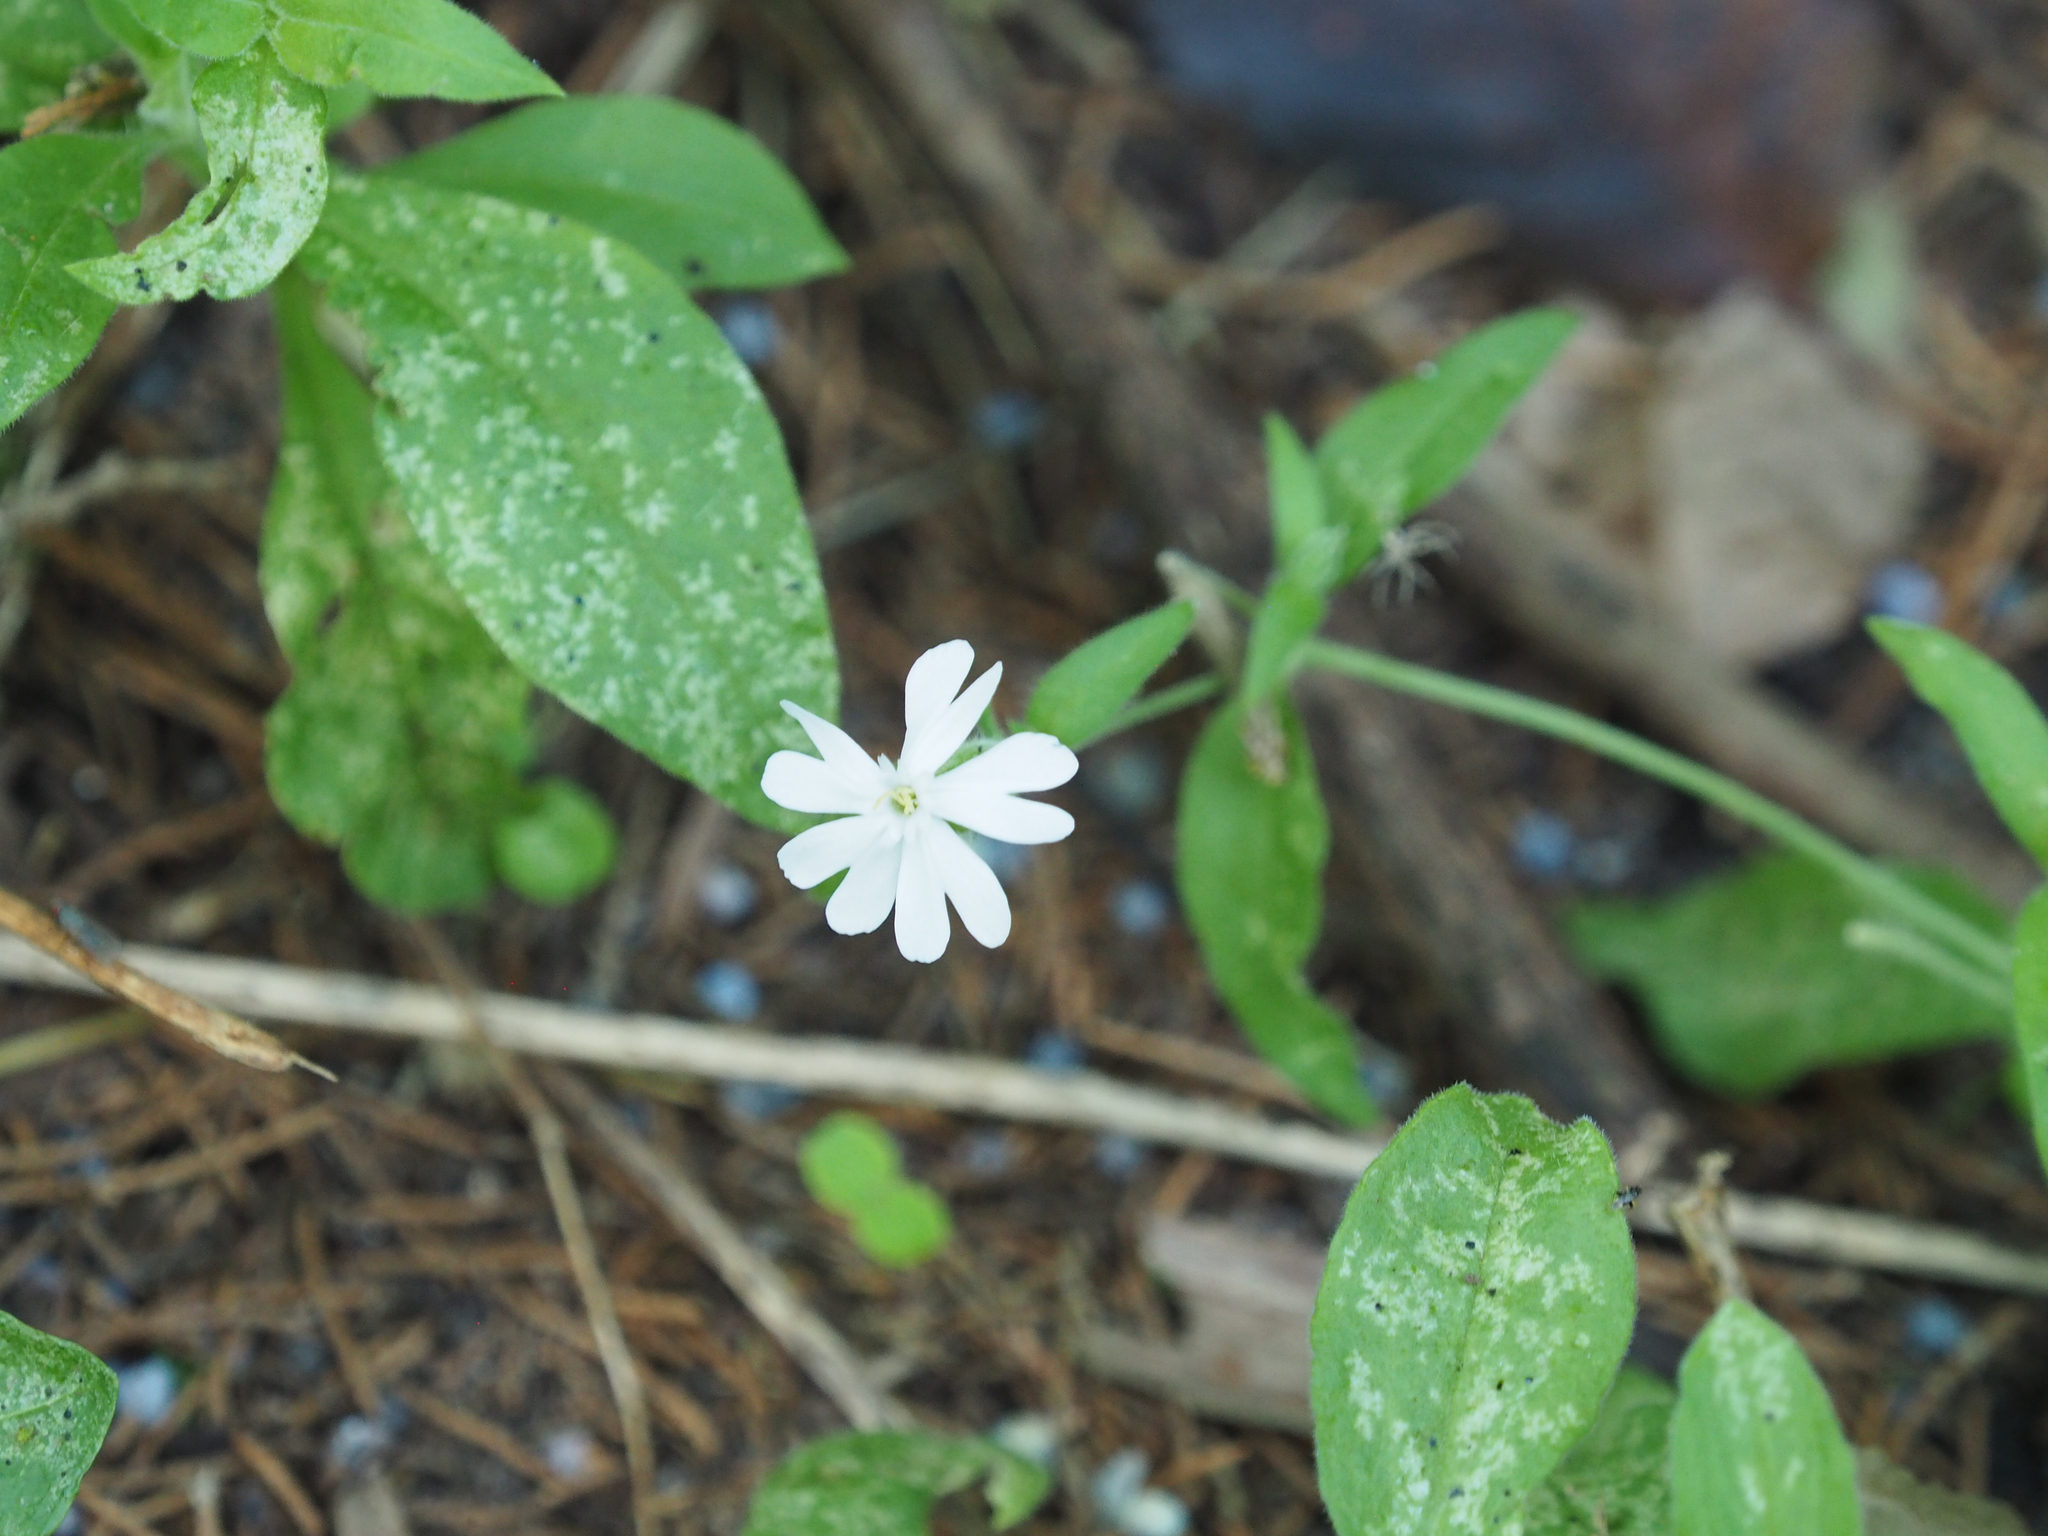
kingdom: Plantae
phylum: Tracheophyta
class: Magnoliopsida
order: Caryophyllales
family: Caryophyllaceae
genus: Silene
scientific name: Silene latifolia
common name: White campion
